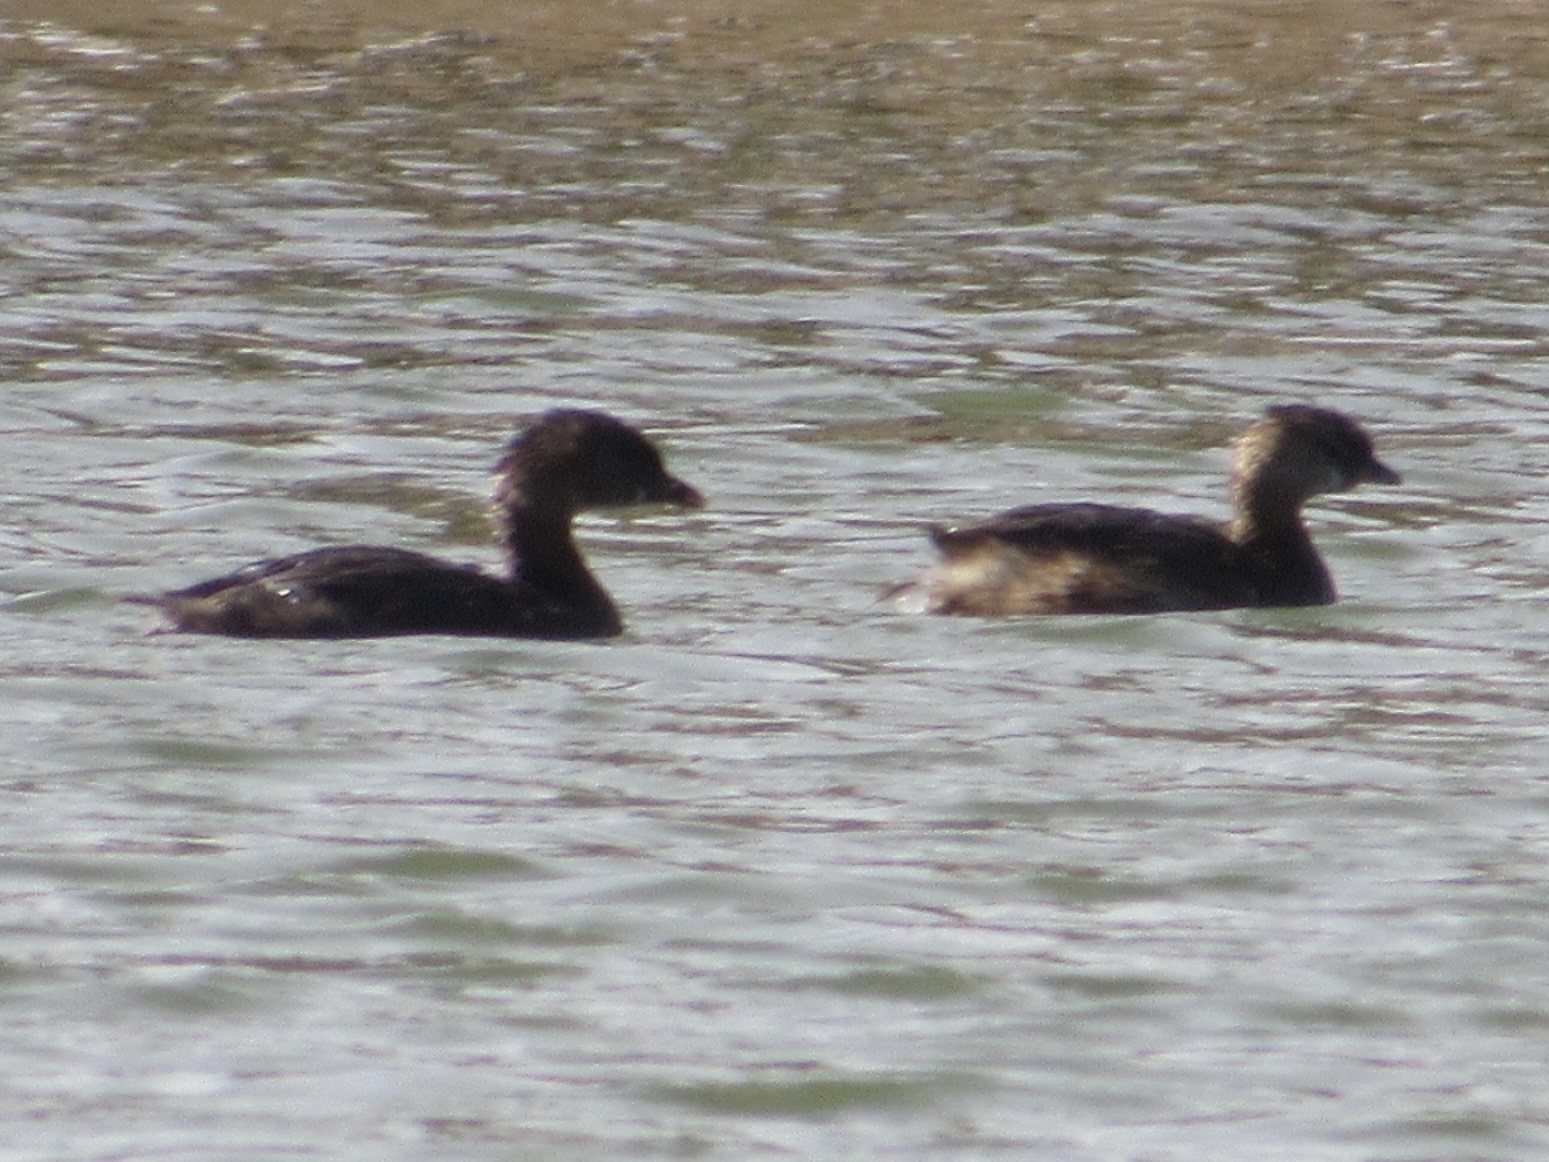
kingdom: Animalia
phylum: Chordata
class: Aves
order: Podicipediformes
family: Podicipedidae
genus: Podilymbus
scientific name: Podilymbus podiceps
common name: Pied-billed grebe
